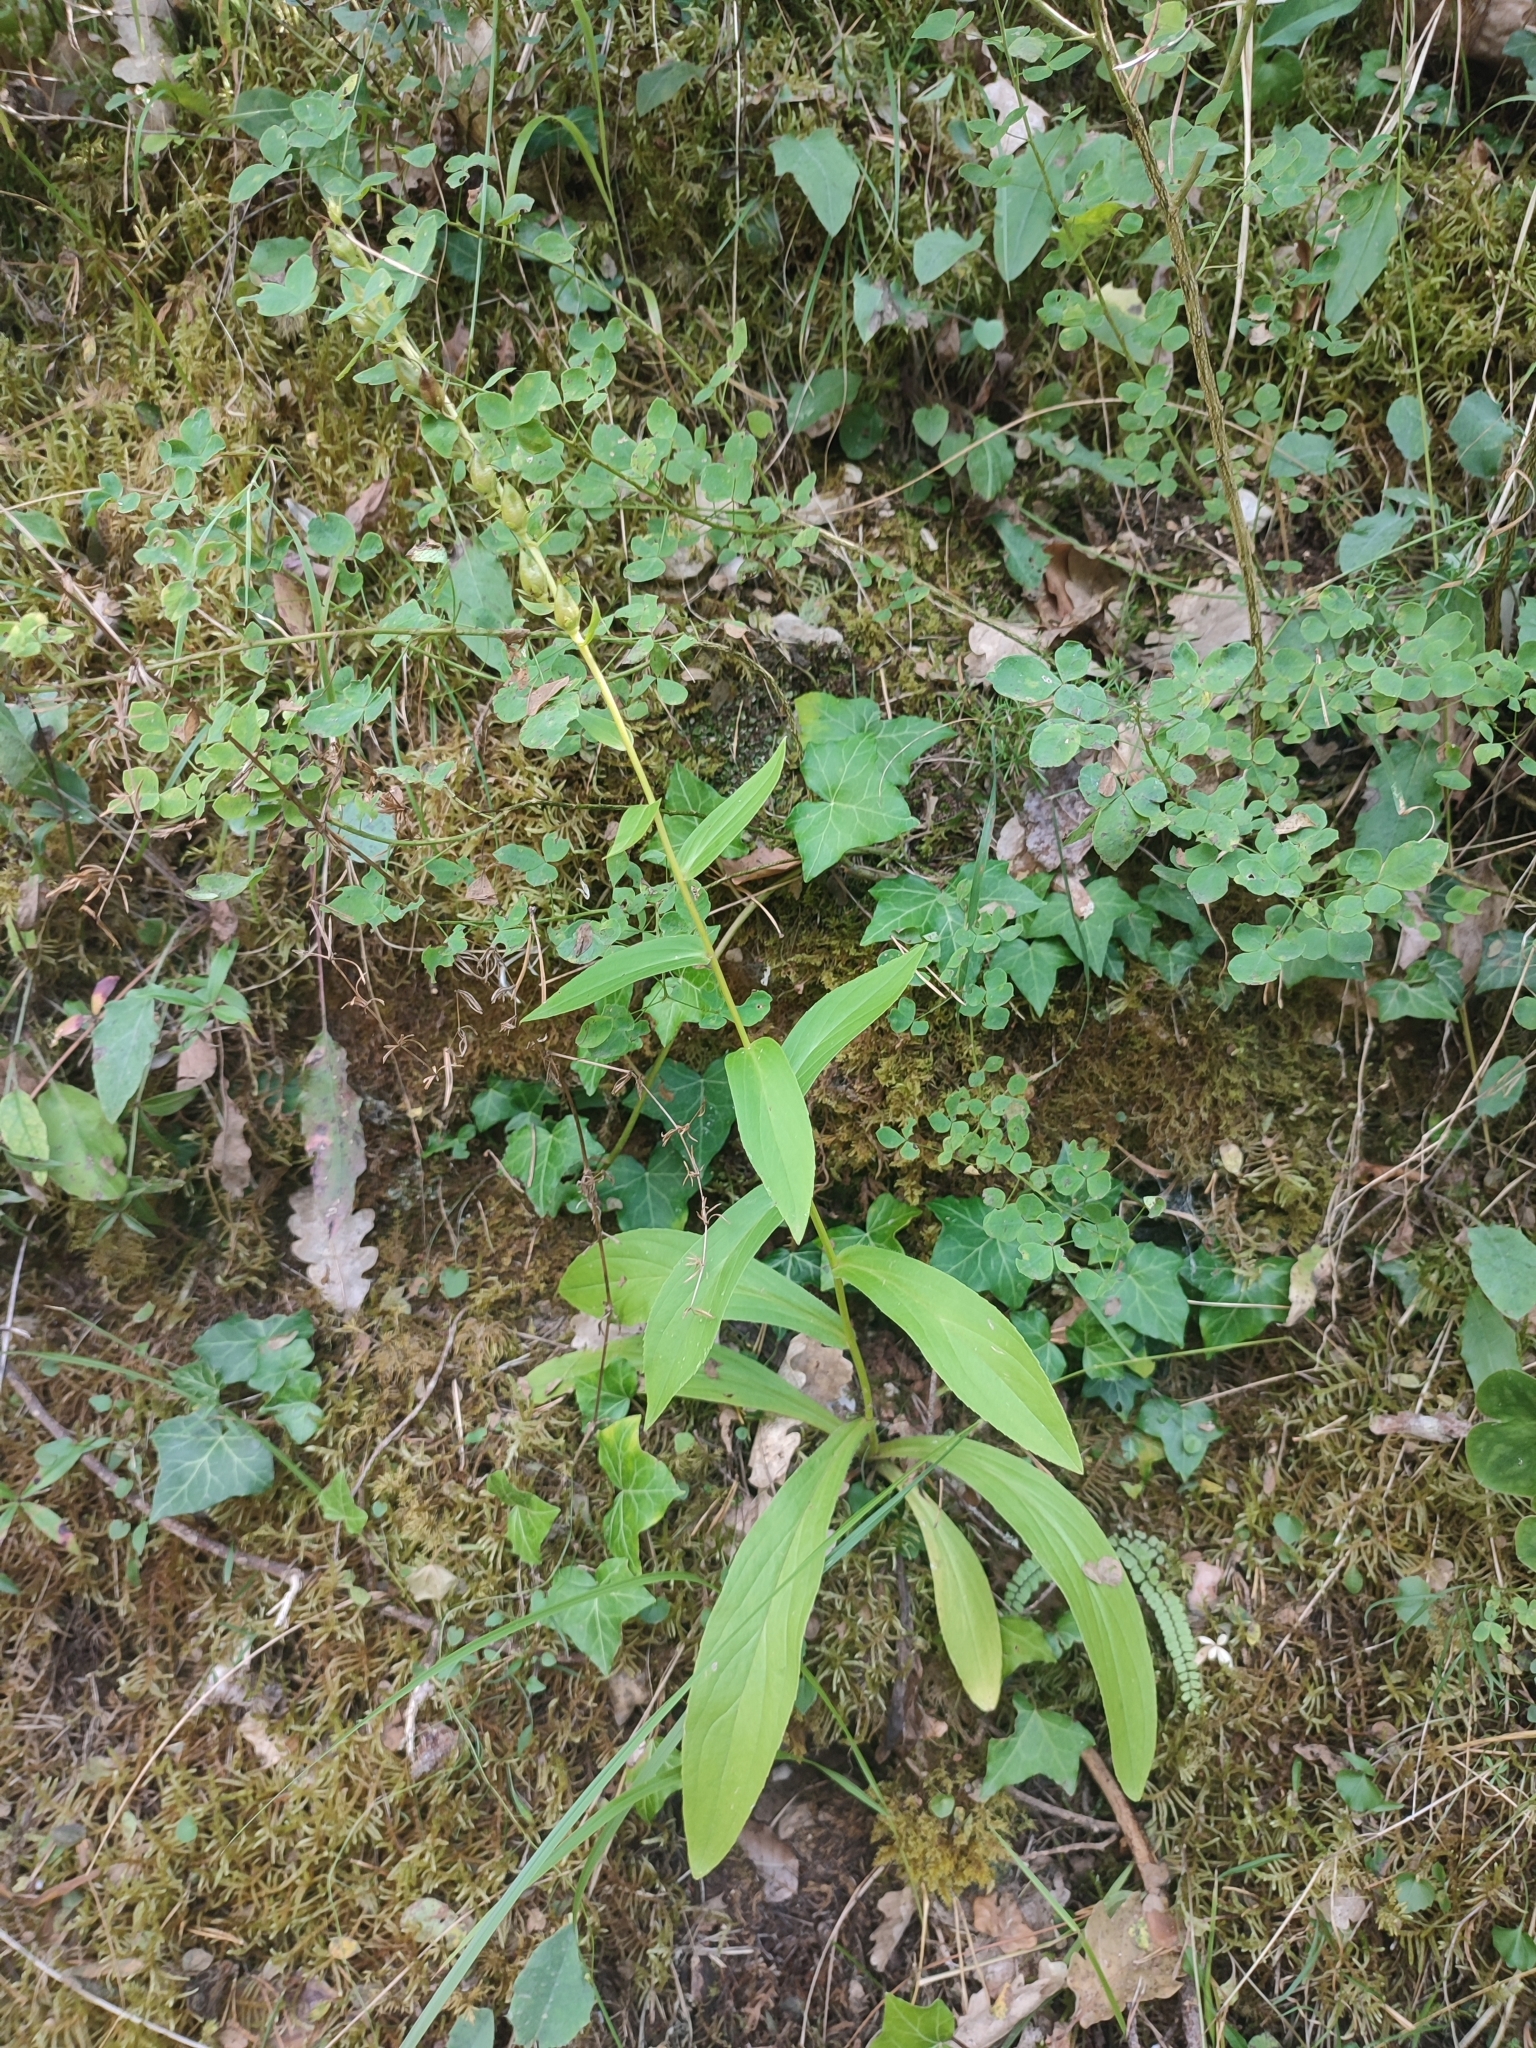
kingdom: Plantae
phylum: Tracheophyta
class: Magnoliopsida
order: Lamiales
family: Plantaginaceae
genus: Digitalis
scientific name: Digitalis lutea
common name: Straw foxglove
